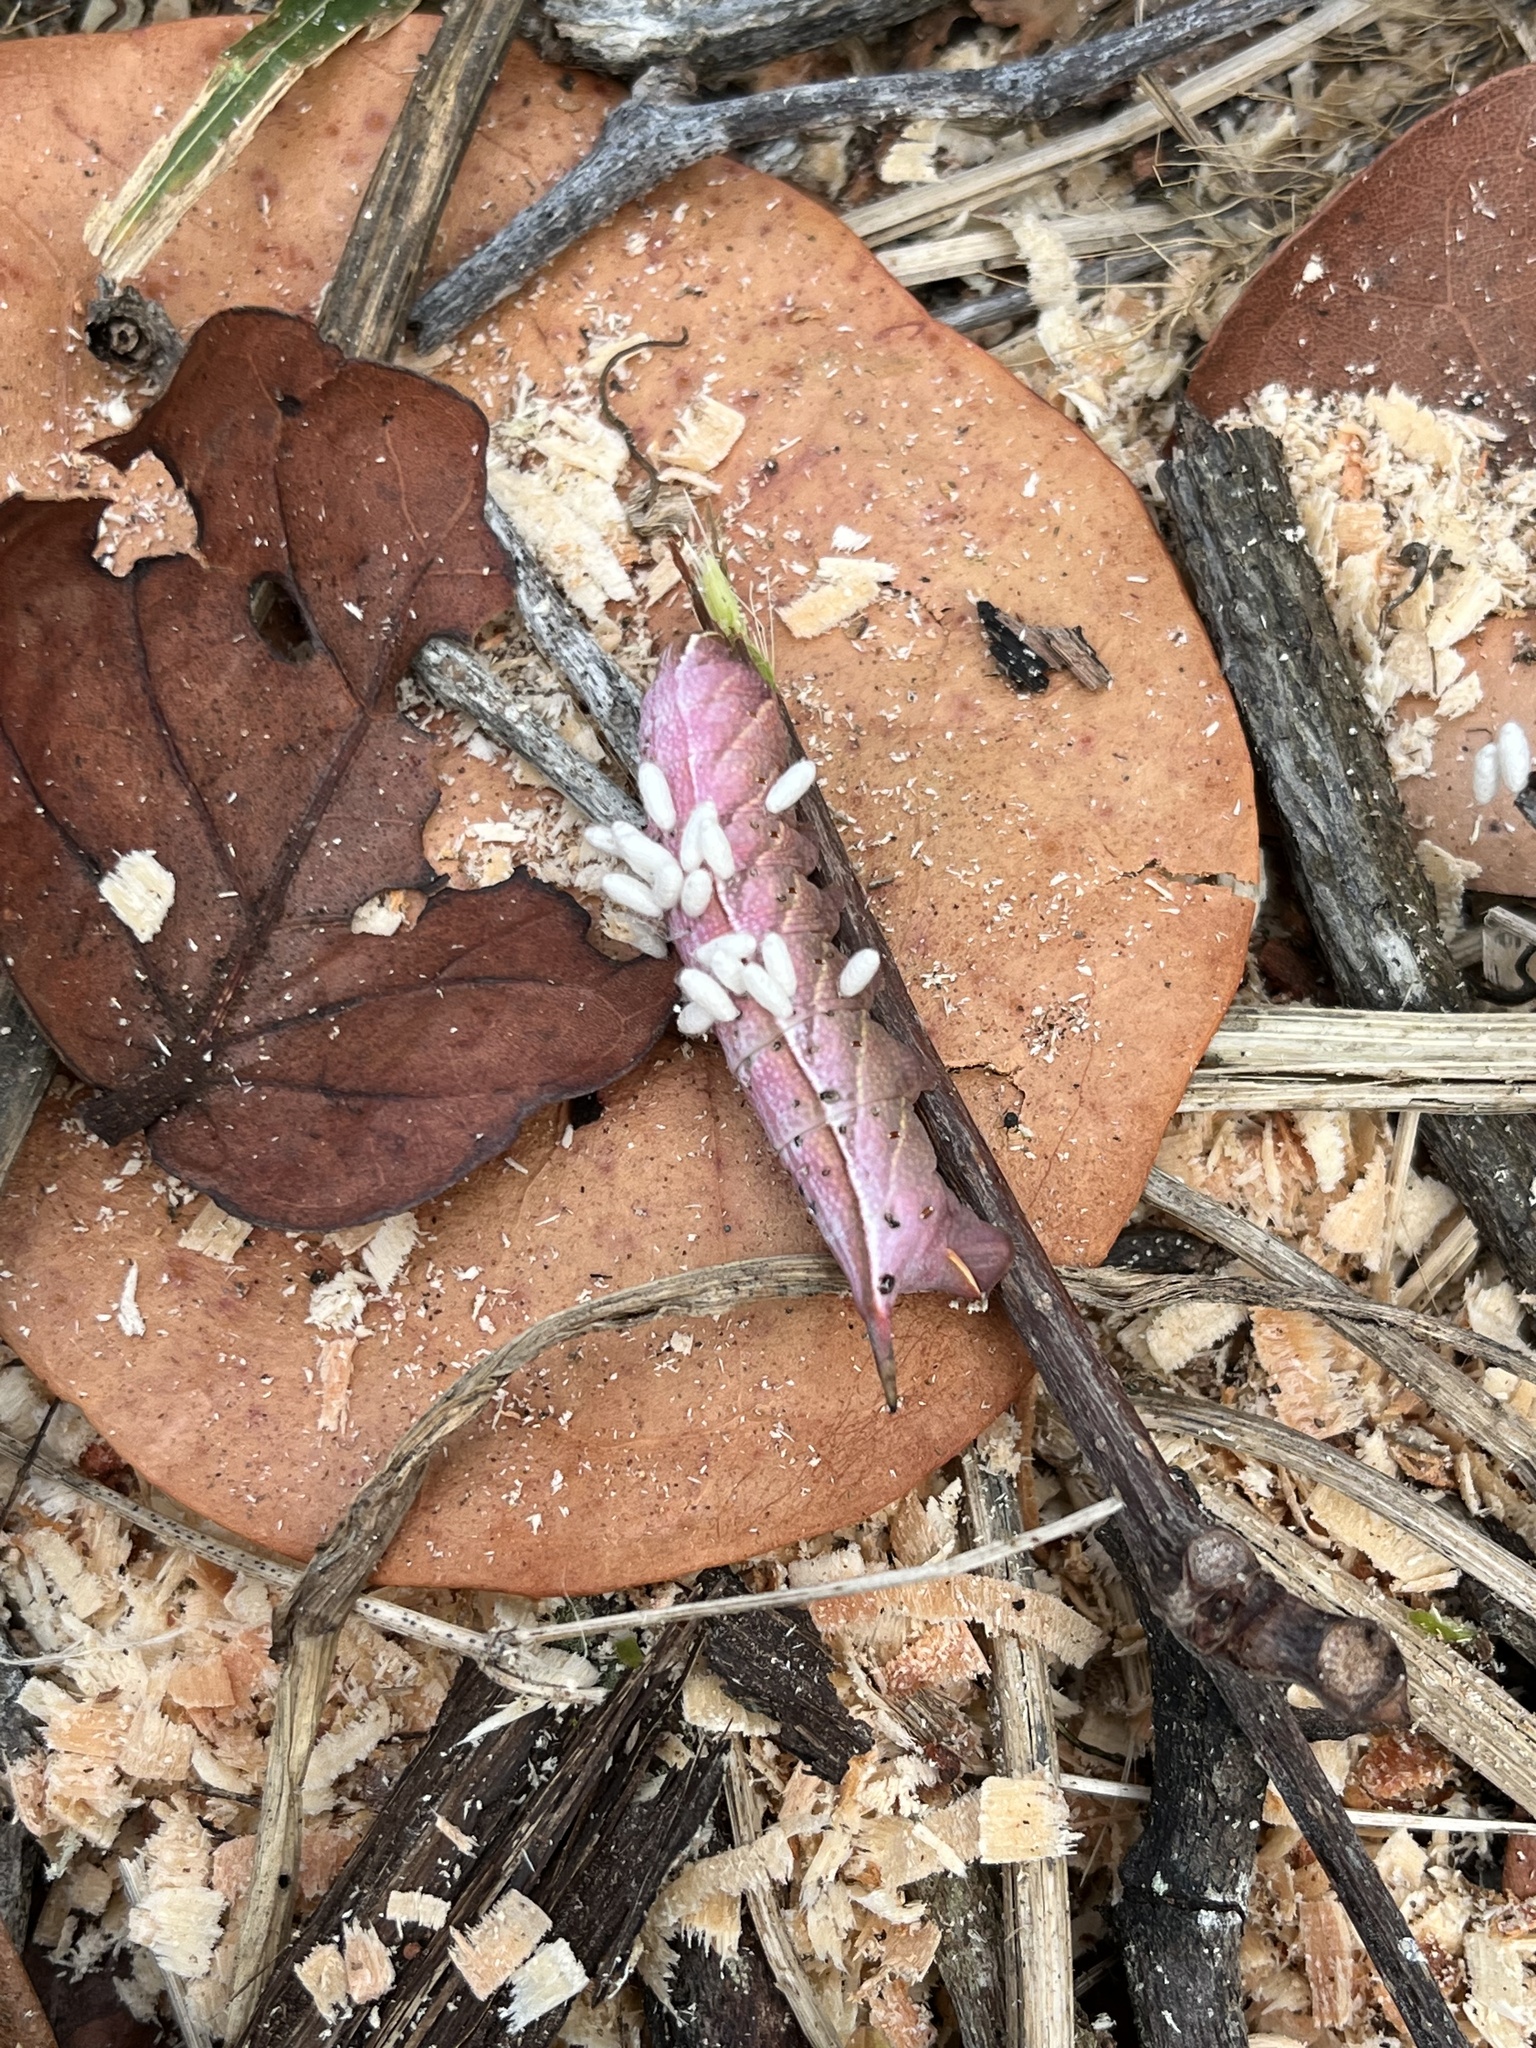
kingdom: Animalia
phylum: Arthropoda
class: Insecta
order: Lepidoptera
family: Sphingidae
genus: Enyo
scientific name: Enyo lugubris
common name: Mournful sphinx
